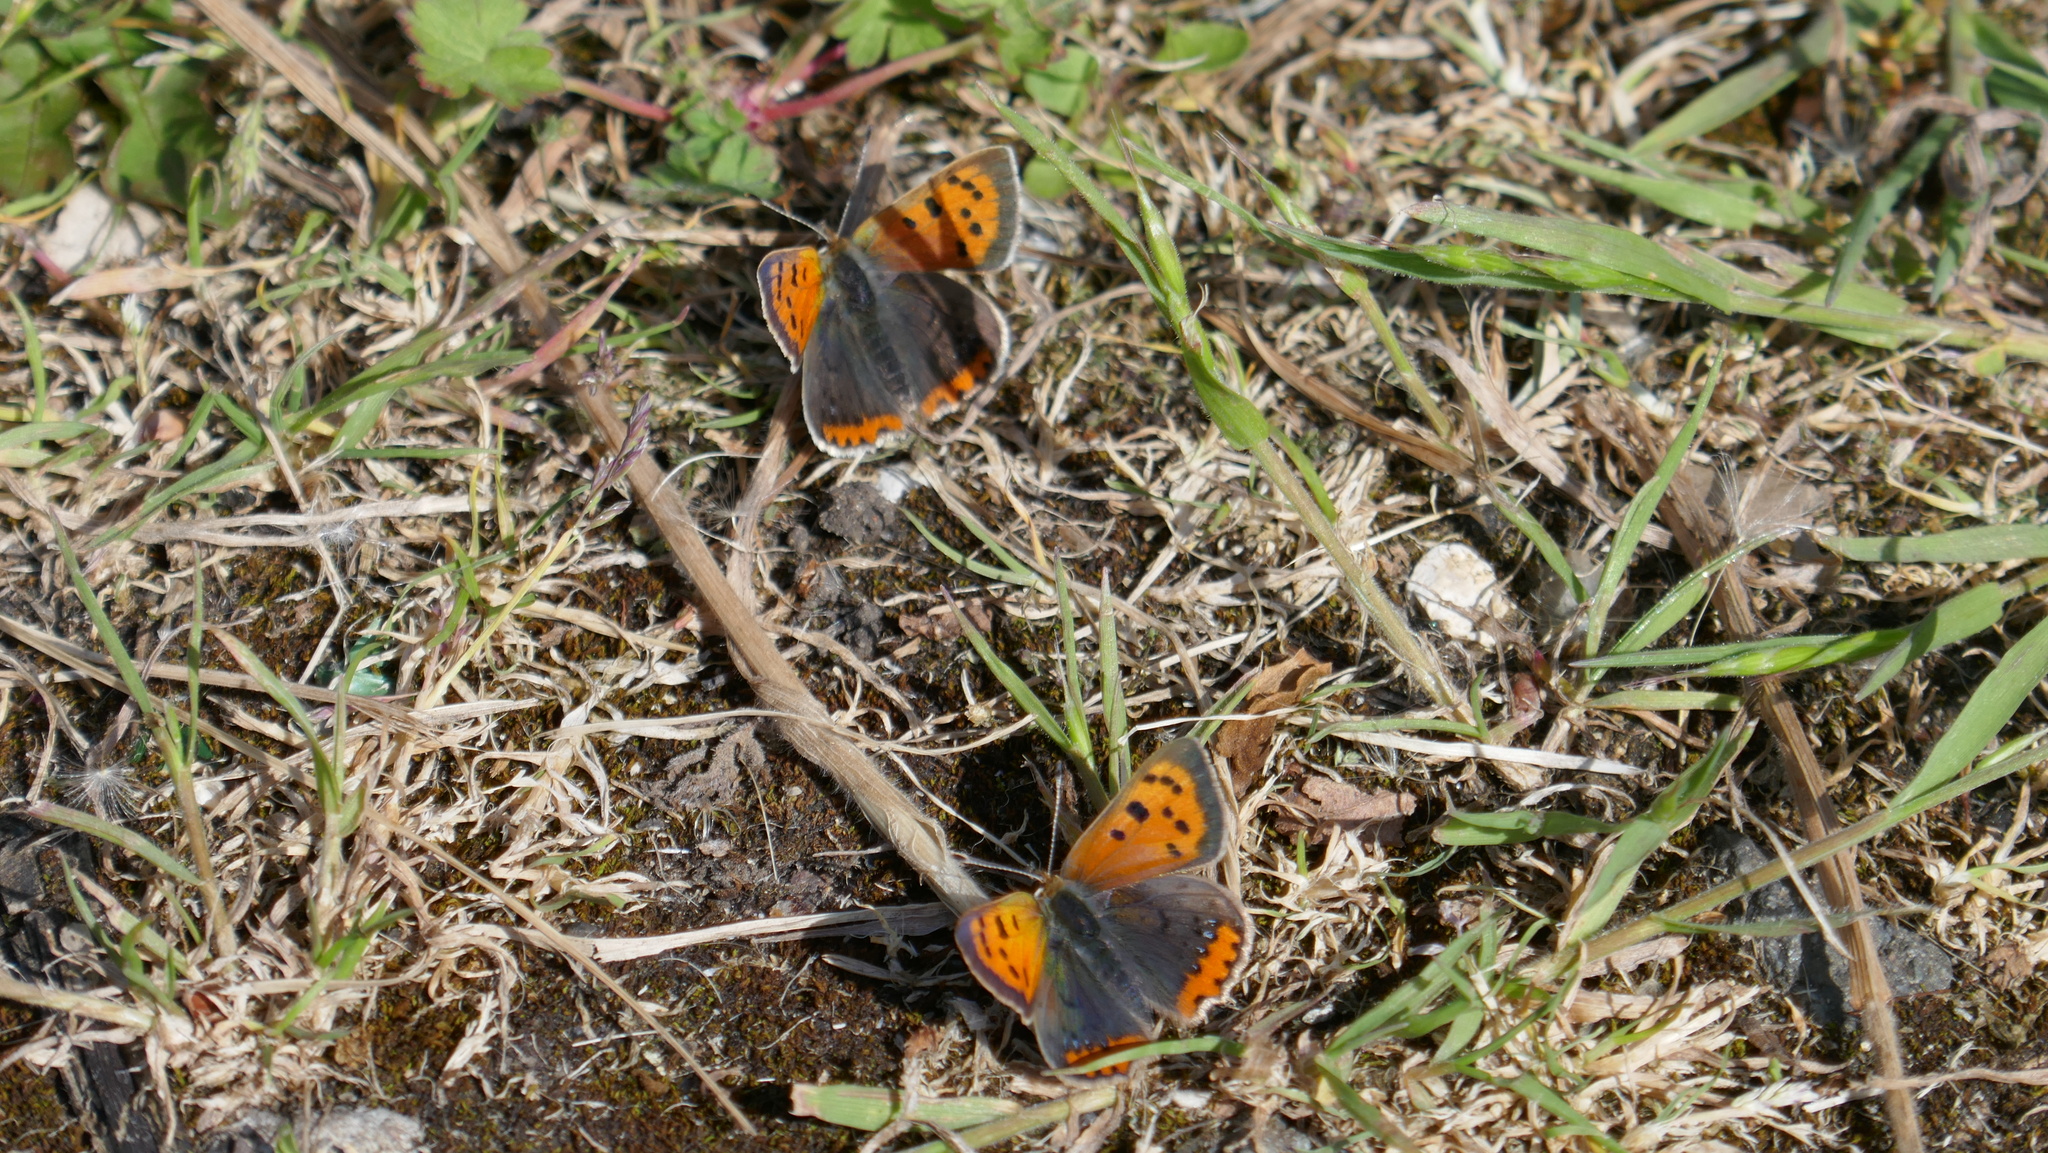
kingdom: Animalia
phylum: Arthropoda
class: Insecta
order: Lepidoptera
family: Lycaenidae
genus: Lycaena
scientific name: Lycaena phlaeas
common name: Small copper
